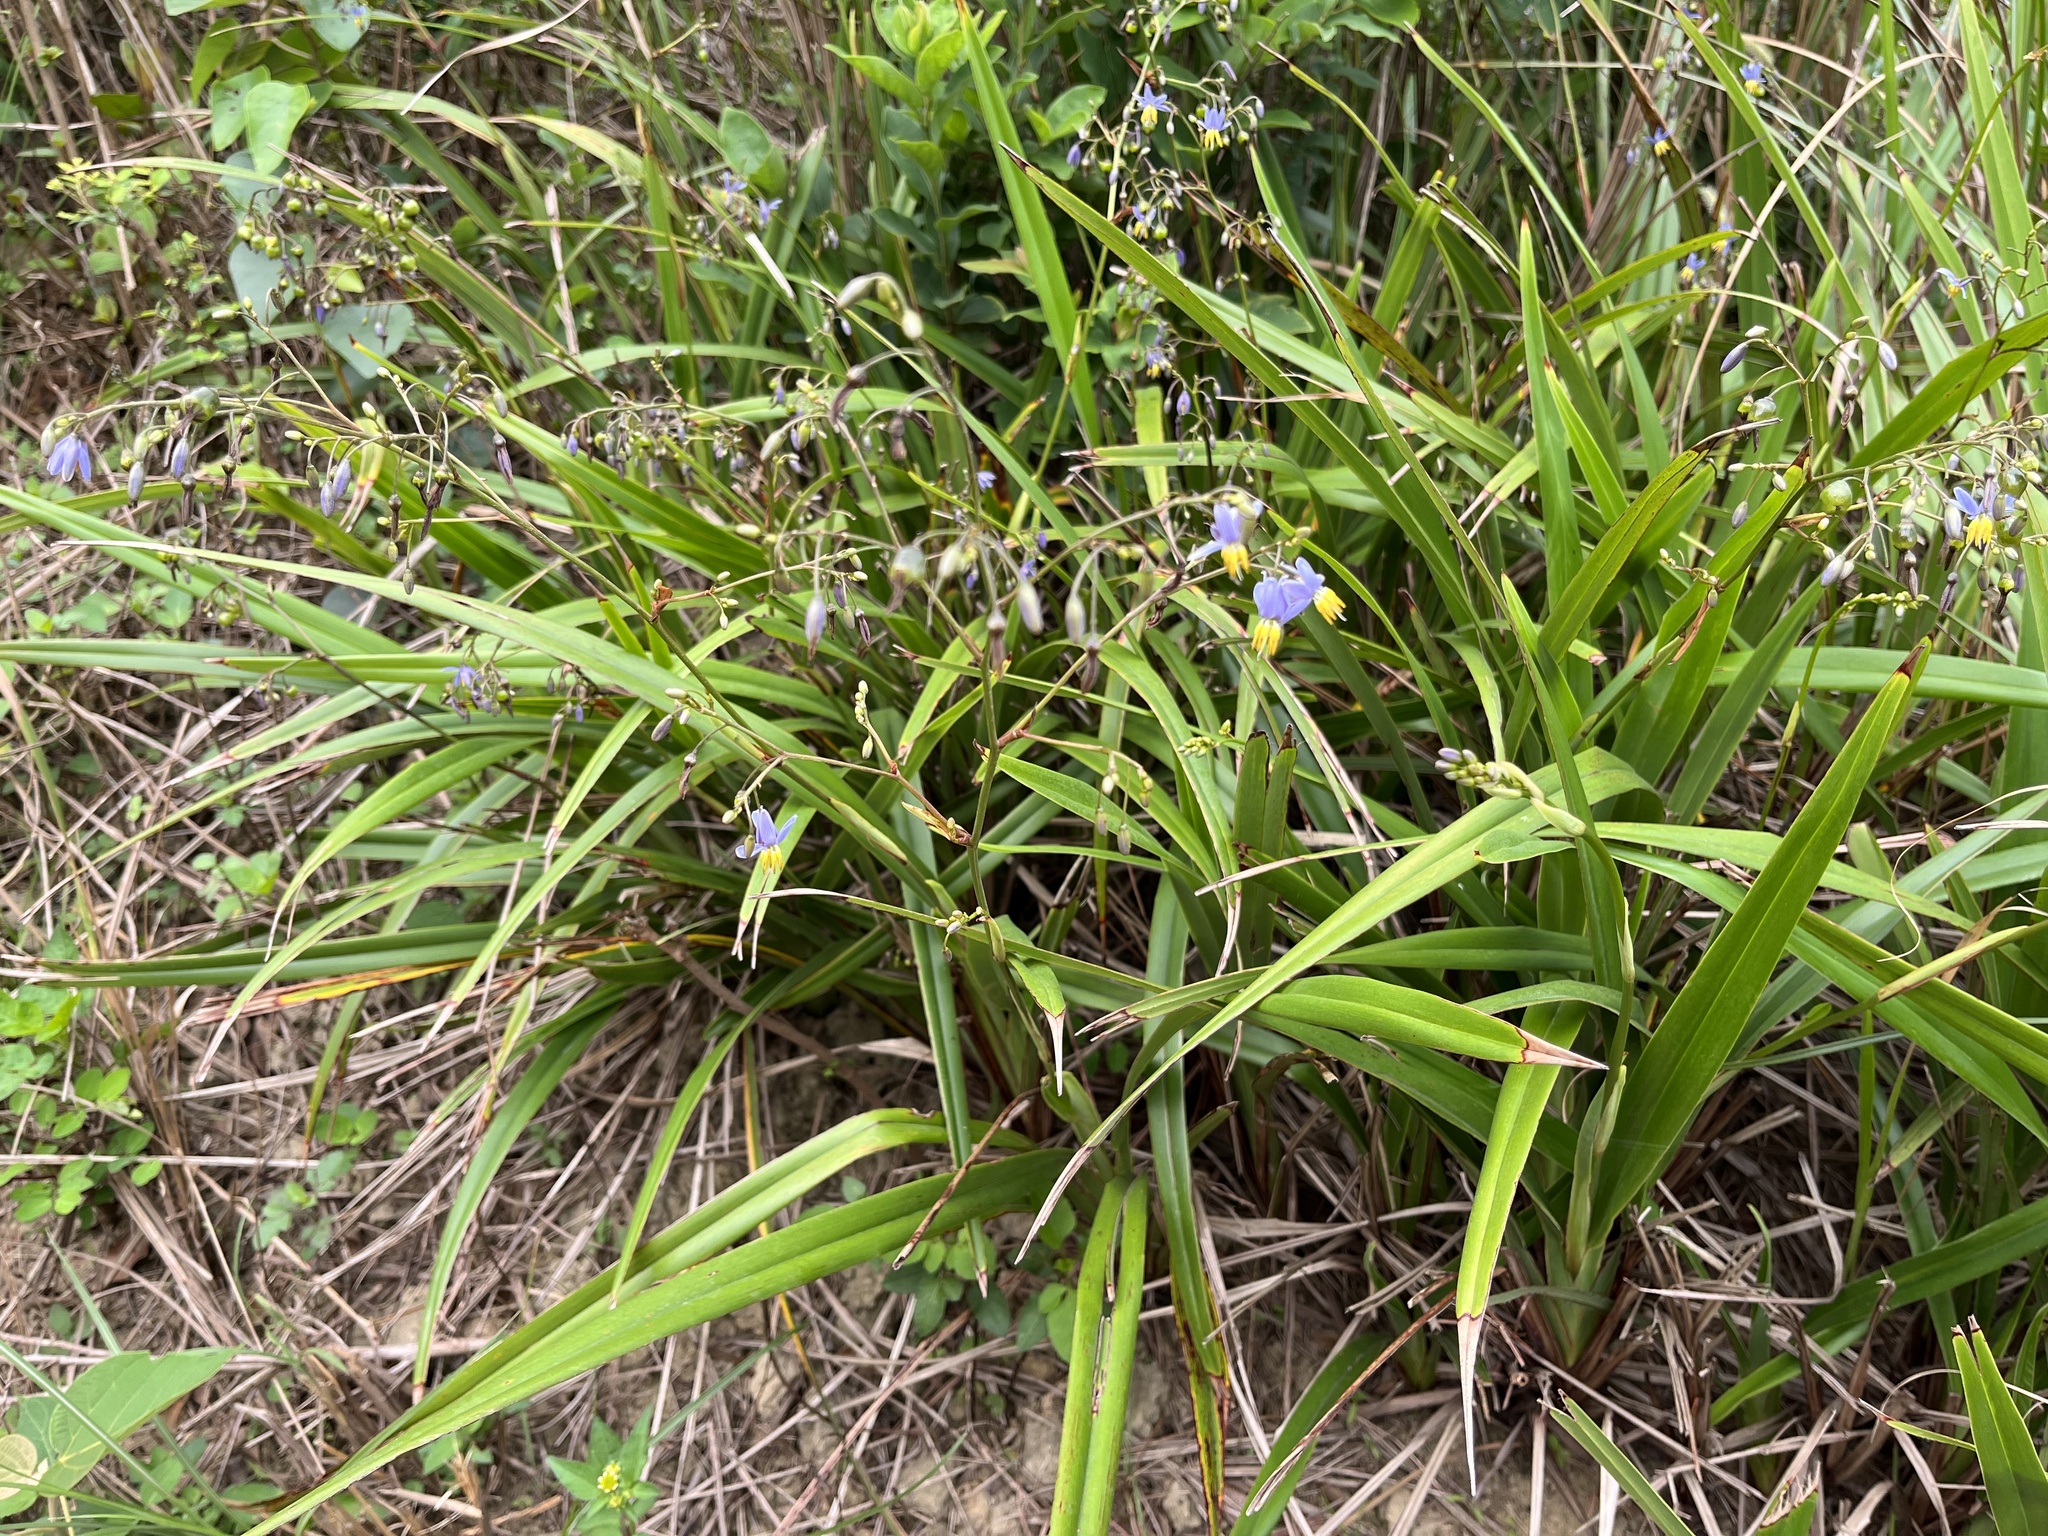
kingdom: Plantae
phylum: Tracheophyta
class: Liliopsida
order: Asparagales
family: Asphodelaceae
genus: Dianella
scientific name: Dianella ensifolia
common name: New zealand lilyplant
